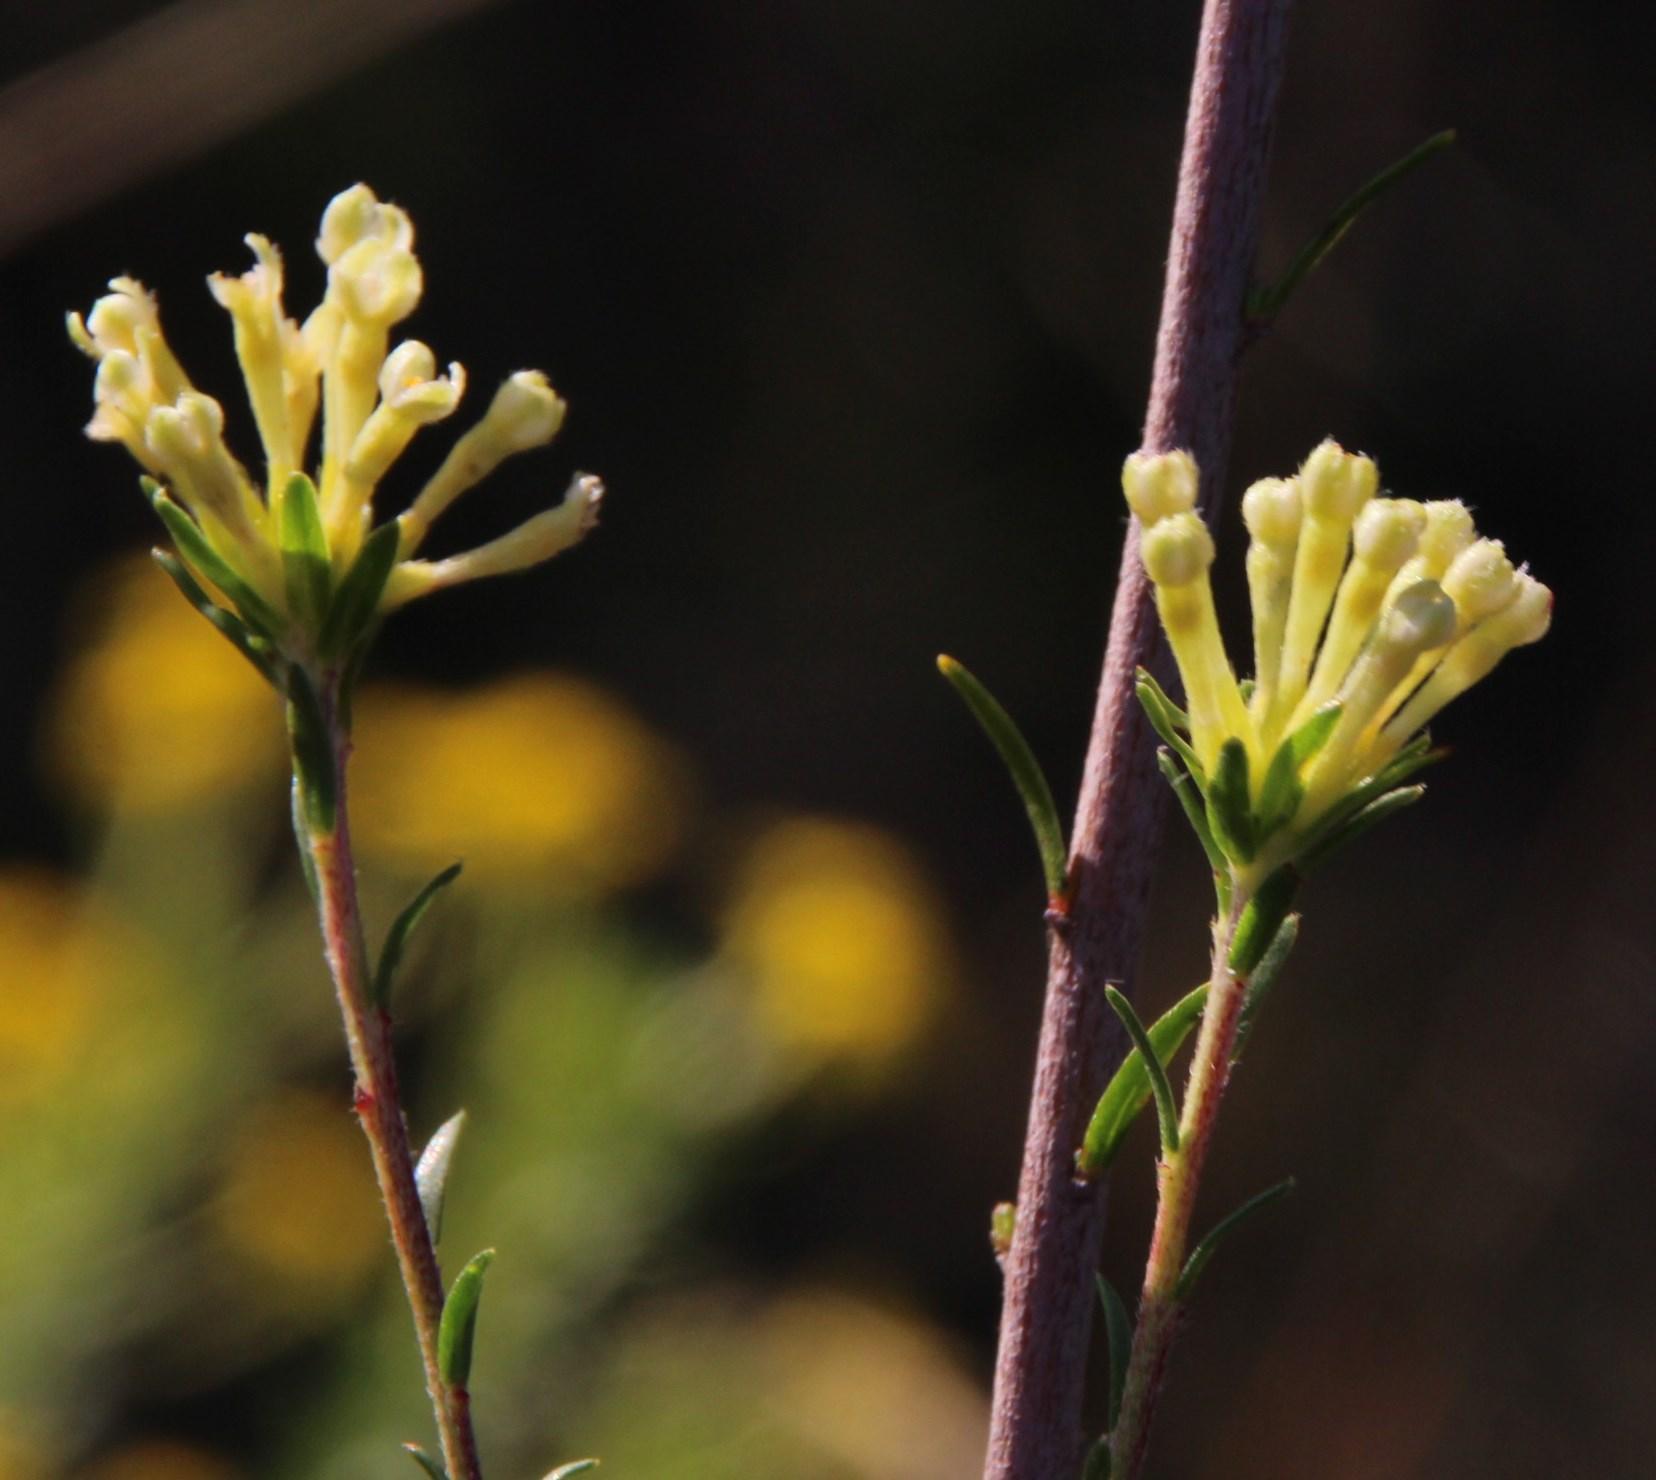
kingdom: Plantae
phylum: Tracheophyta
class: Magnoliopsida
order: Malvales
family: Thymelaeaceae
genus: Gnidia
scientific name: Gnidia squarrosa
